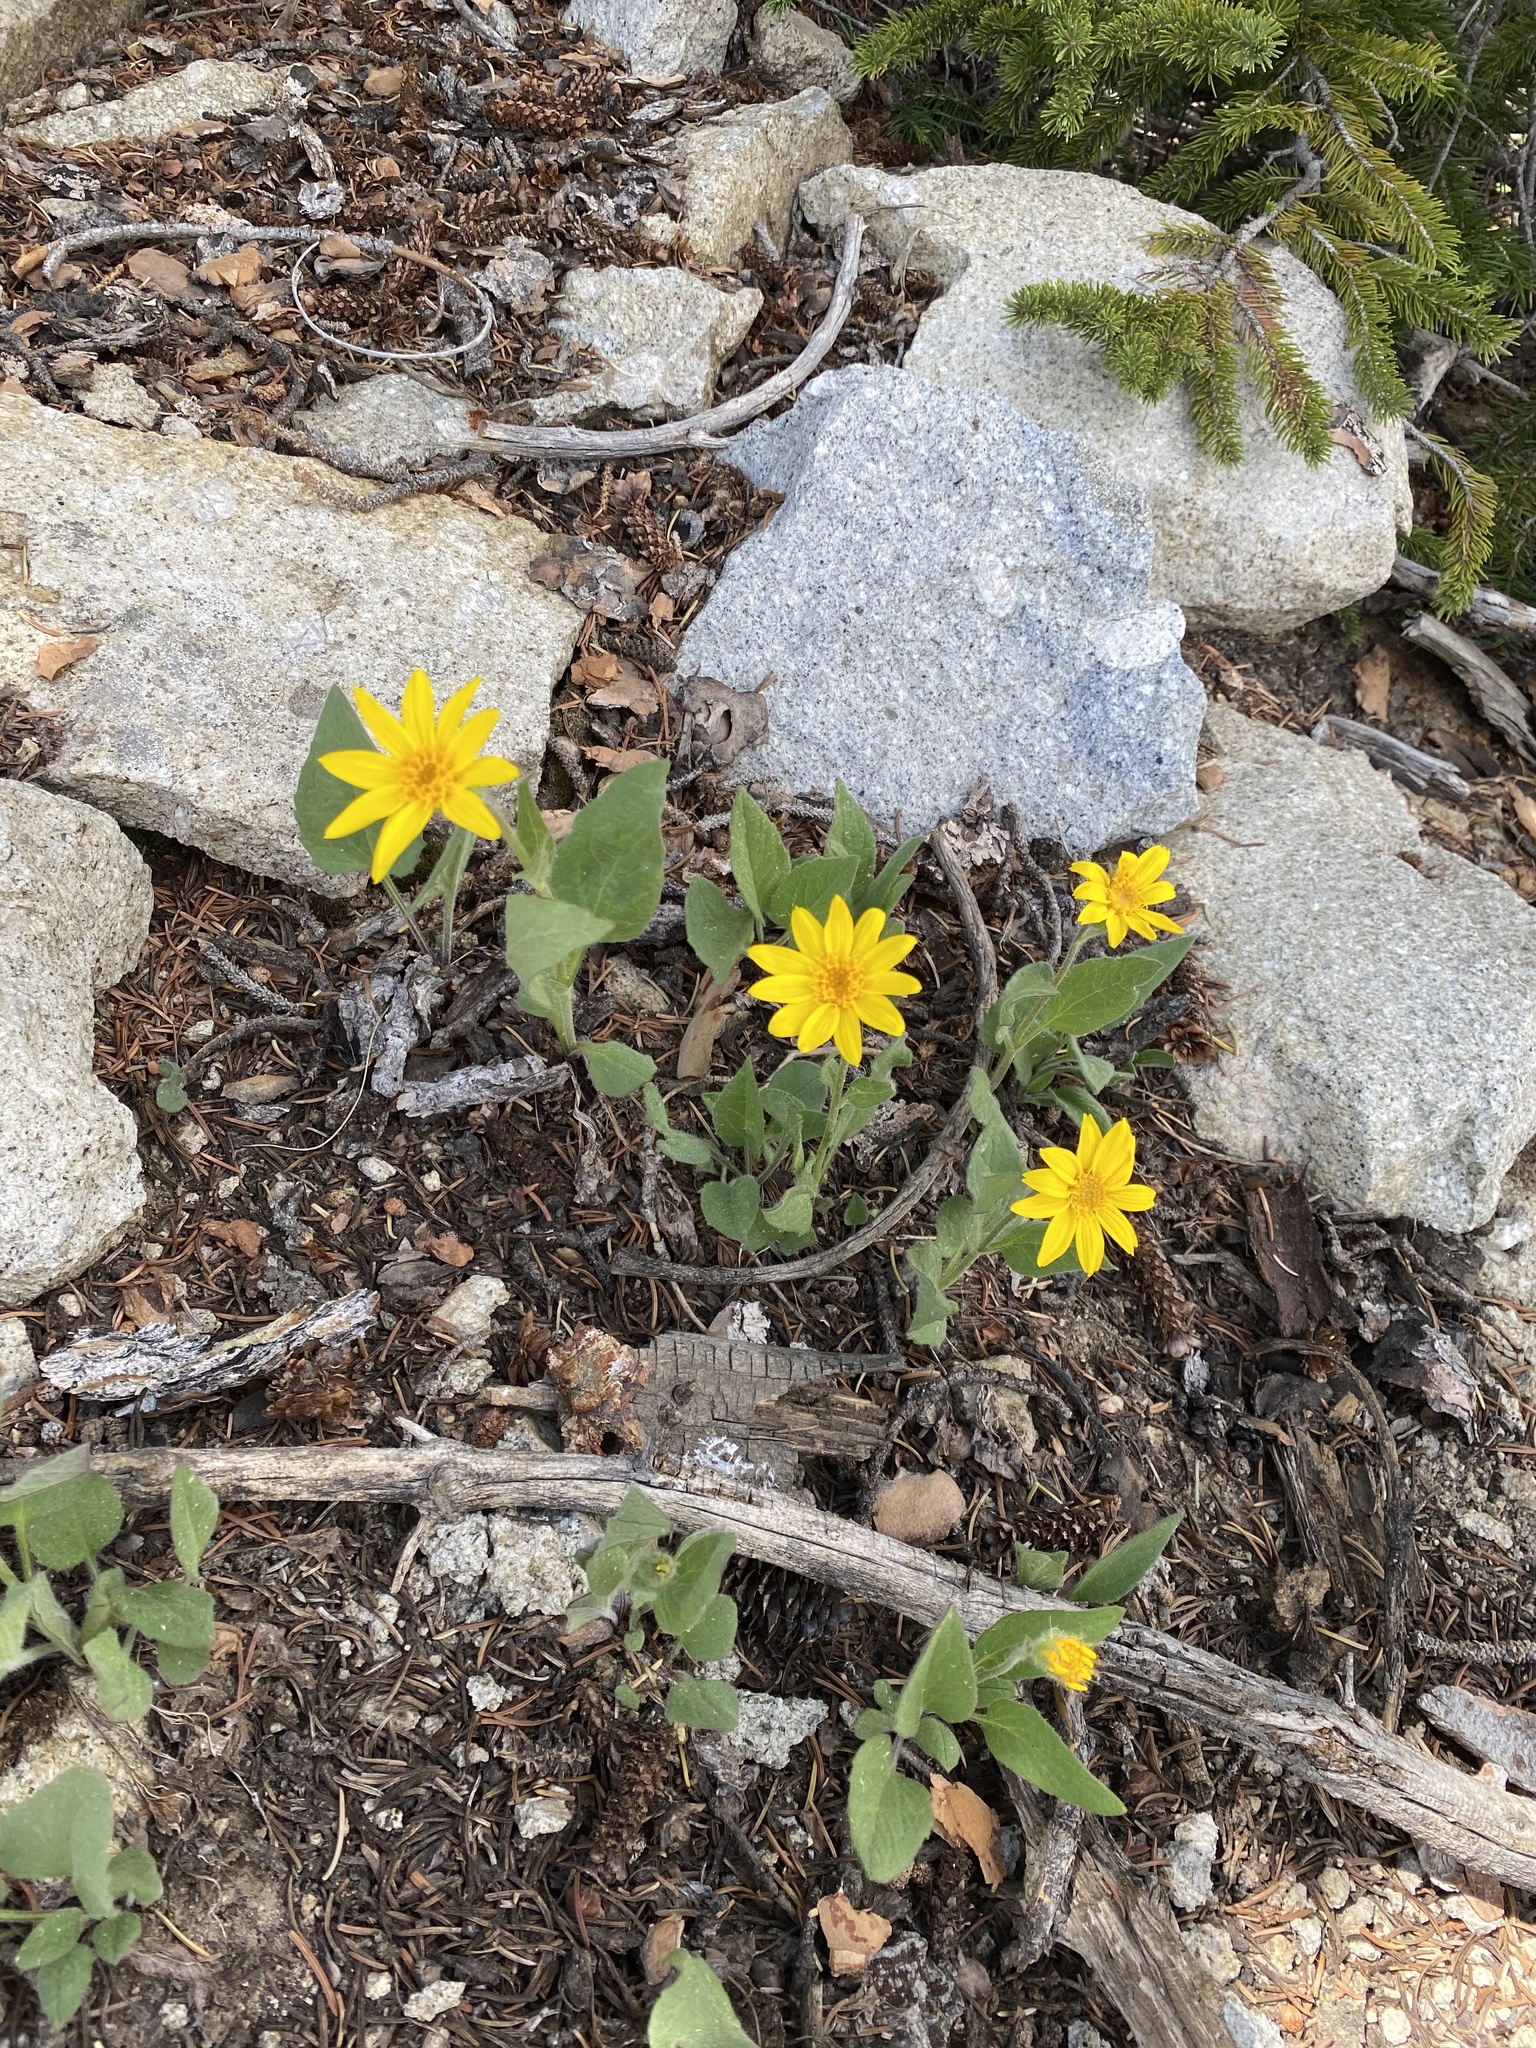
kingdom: Plantae
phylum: Tracheophyta
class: Magnoliopsida
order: Asterales
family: Asteraceae
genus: Arnica
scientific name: Arnica cordifolia
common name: Heart-leaf arnica
